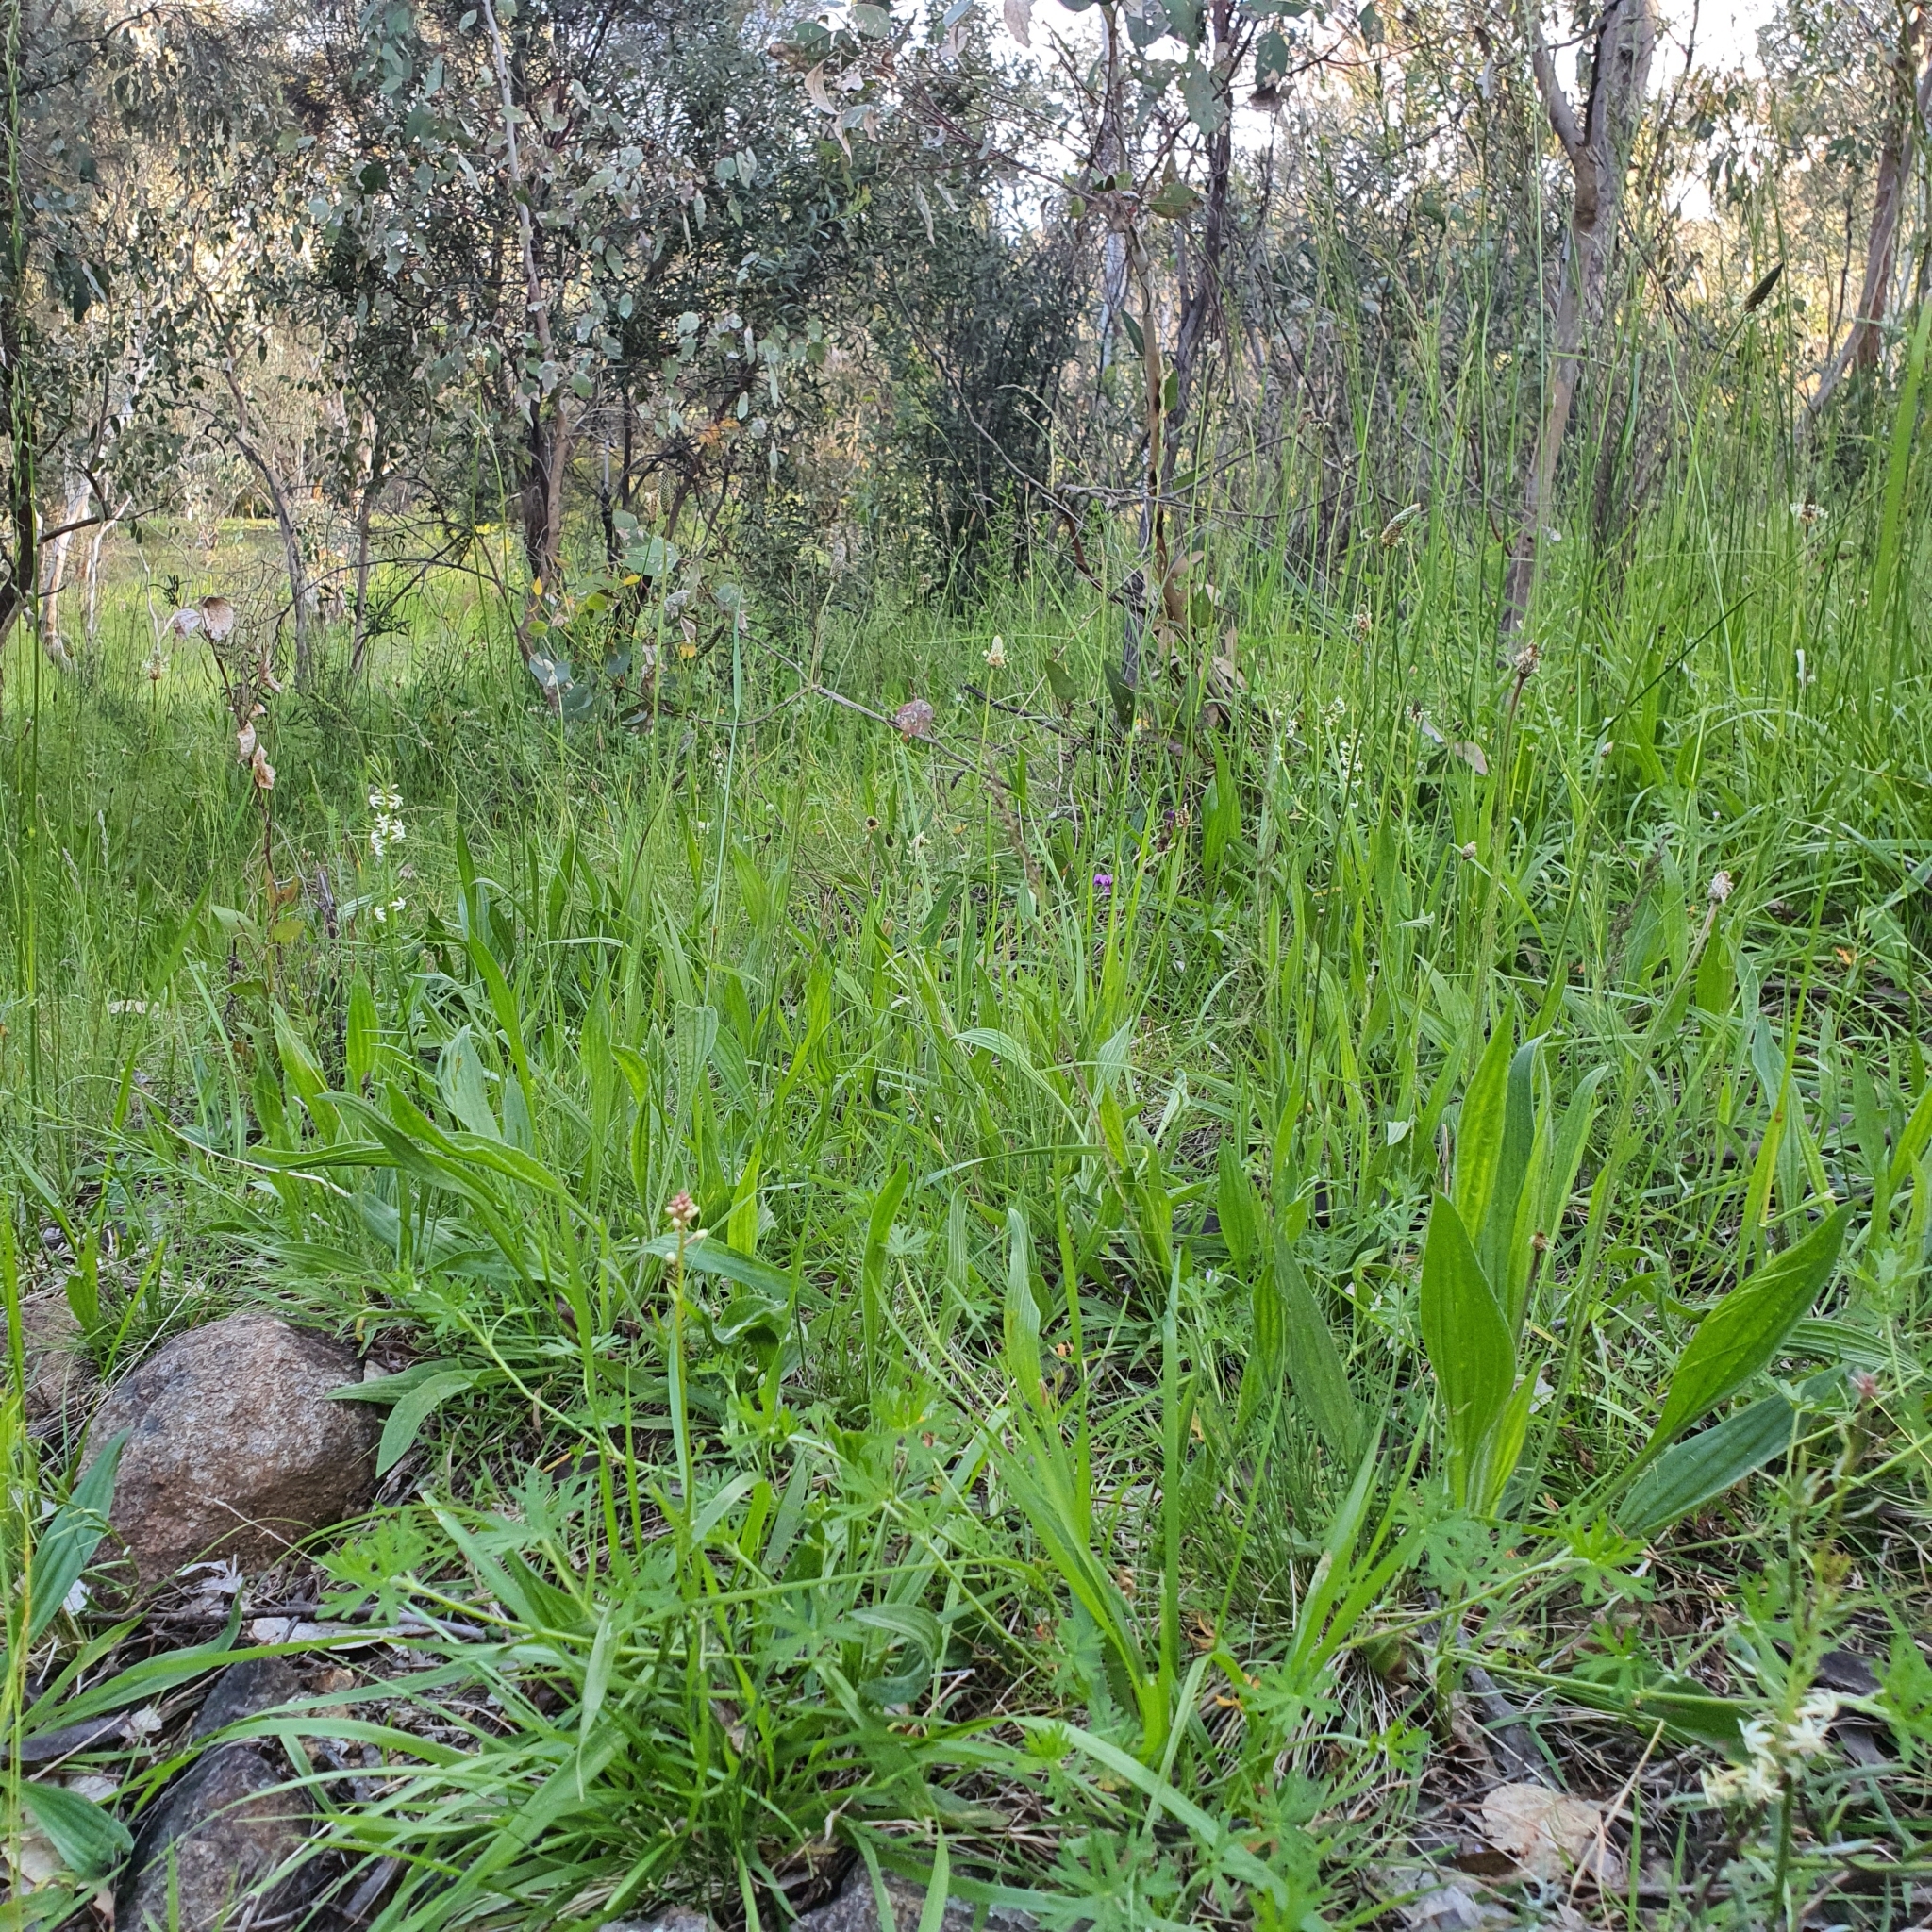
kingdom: Plantae
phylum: Tracheophyta
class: Magnoliopsida
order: Celastrales
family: Celastraceae
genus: Stackhousia
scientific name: Stackhousia monogyna
